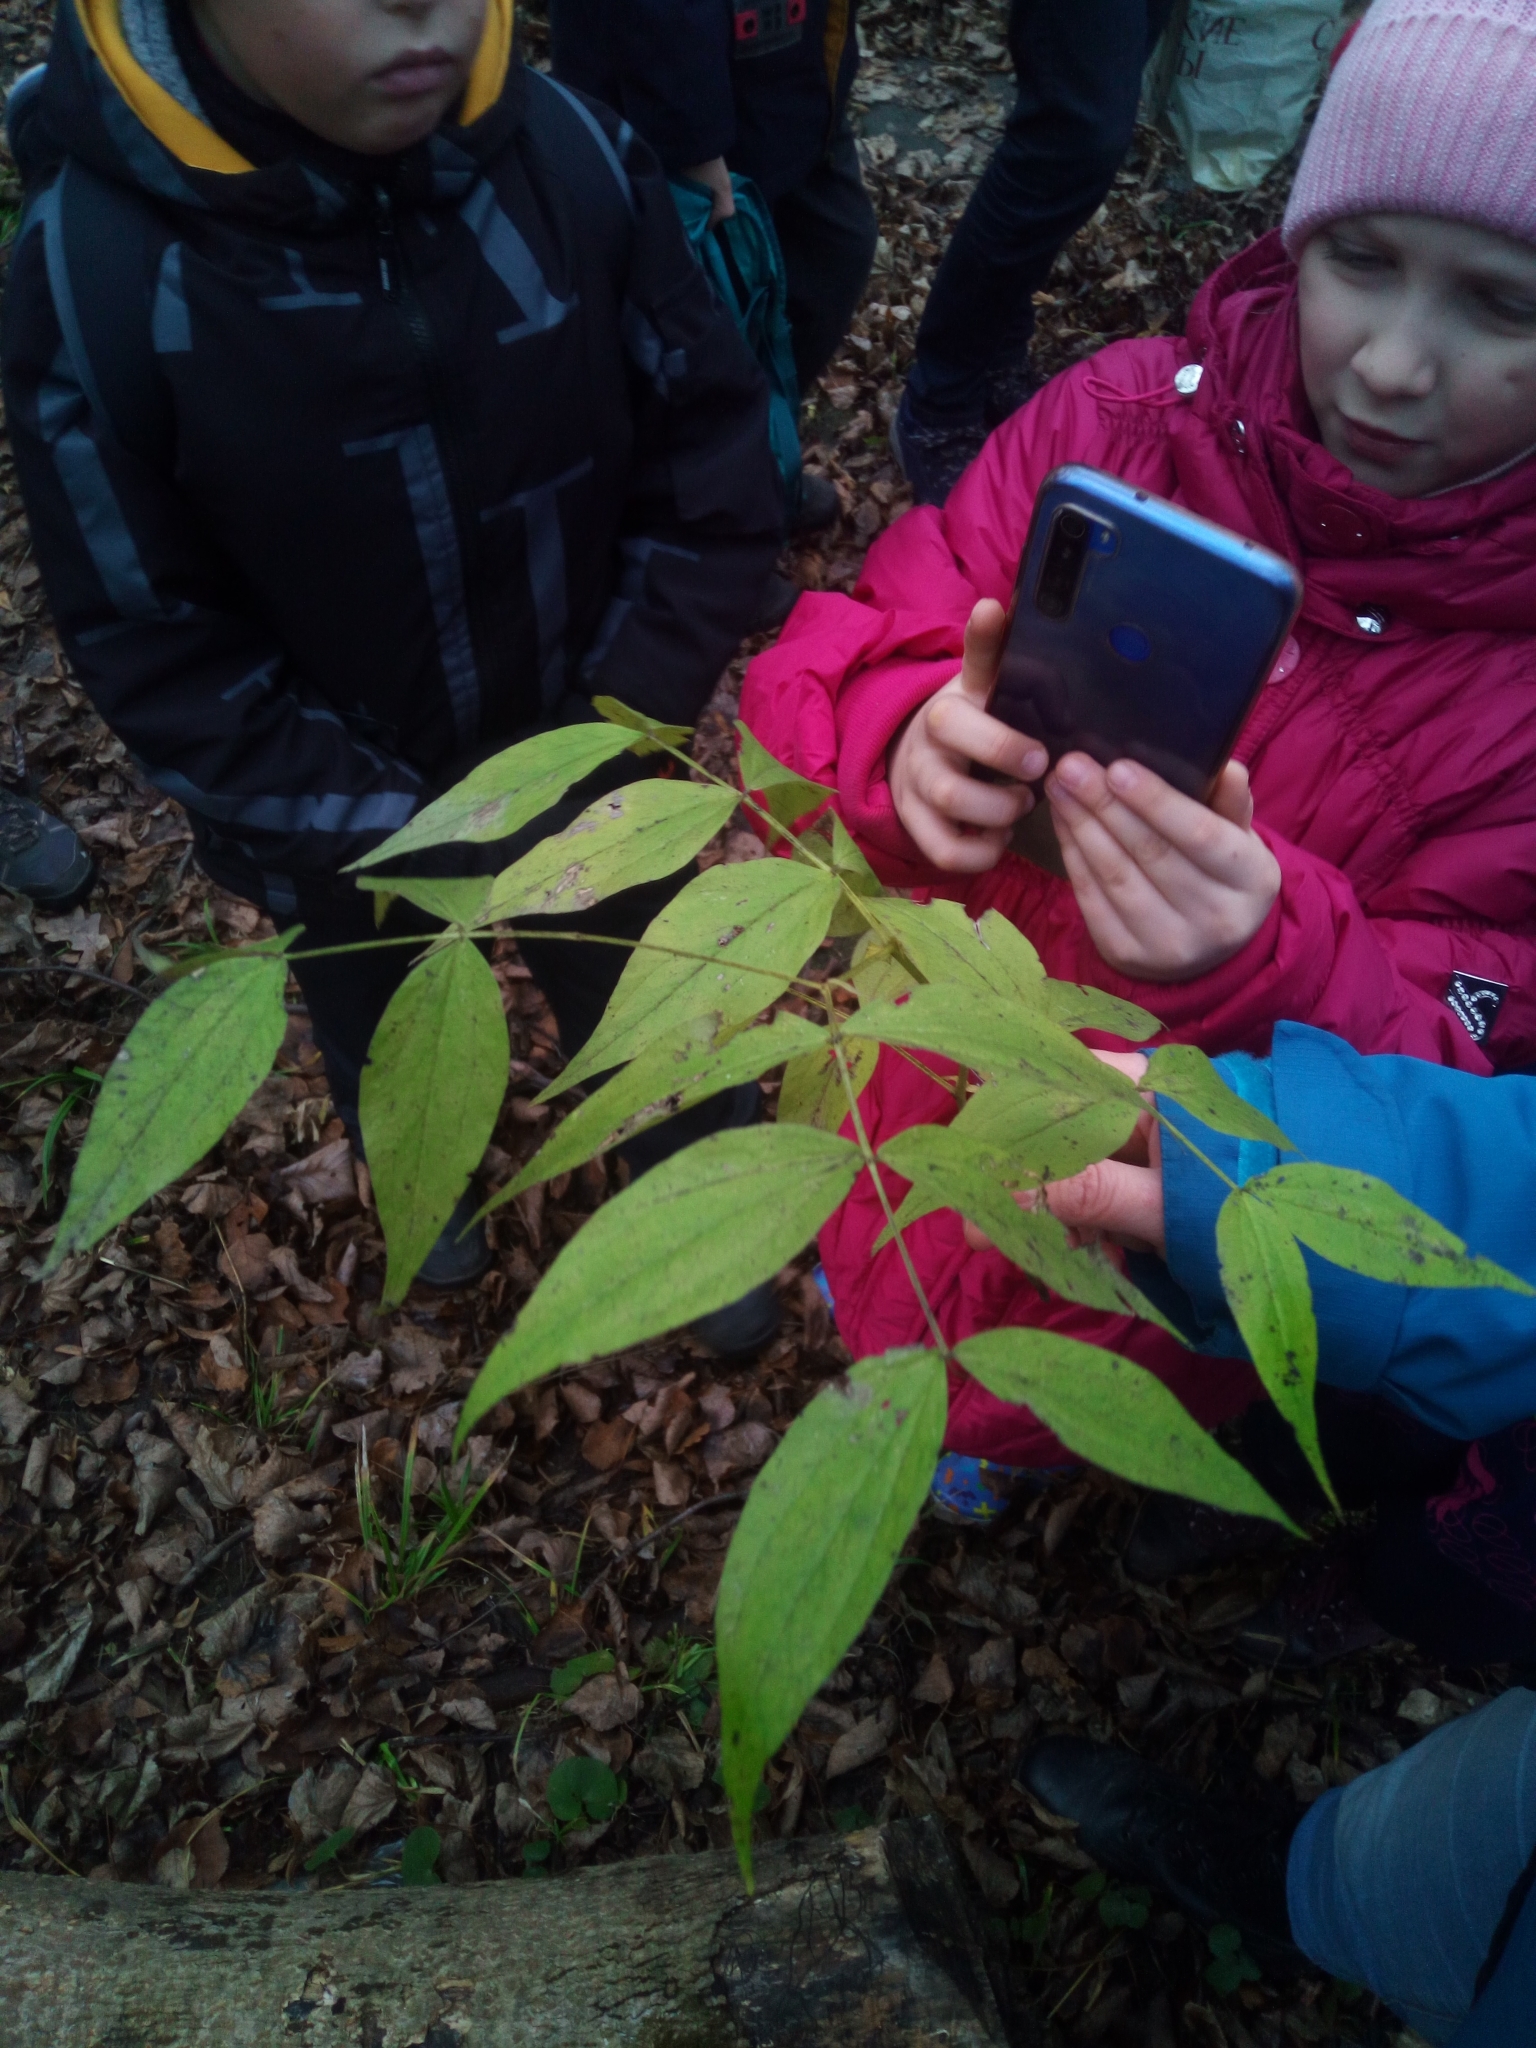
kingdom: Plantae
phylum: Tracheophyta
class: Magnoliopsida
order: Fabales
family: Fabaceae
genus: Lathyrus
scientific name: Lathyrus vernus
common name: Spring pea
